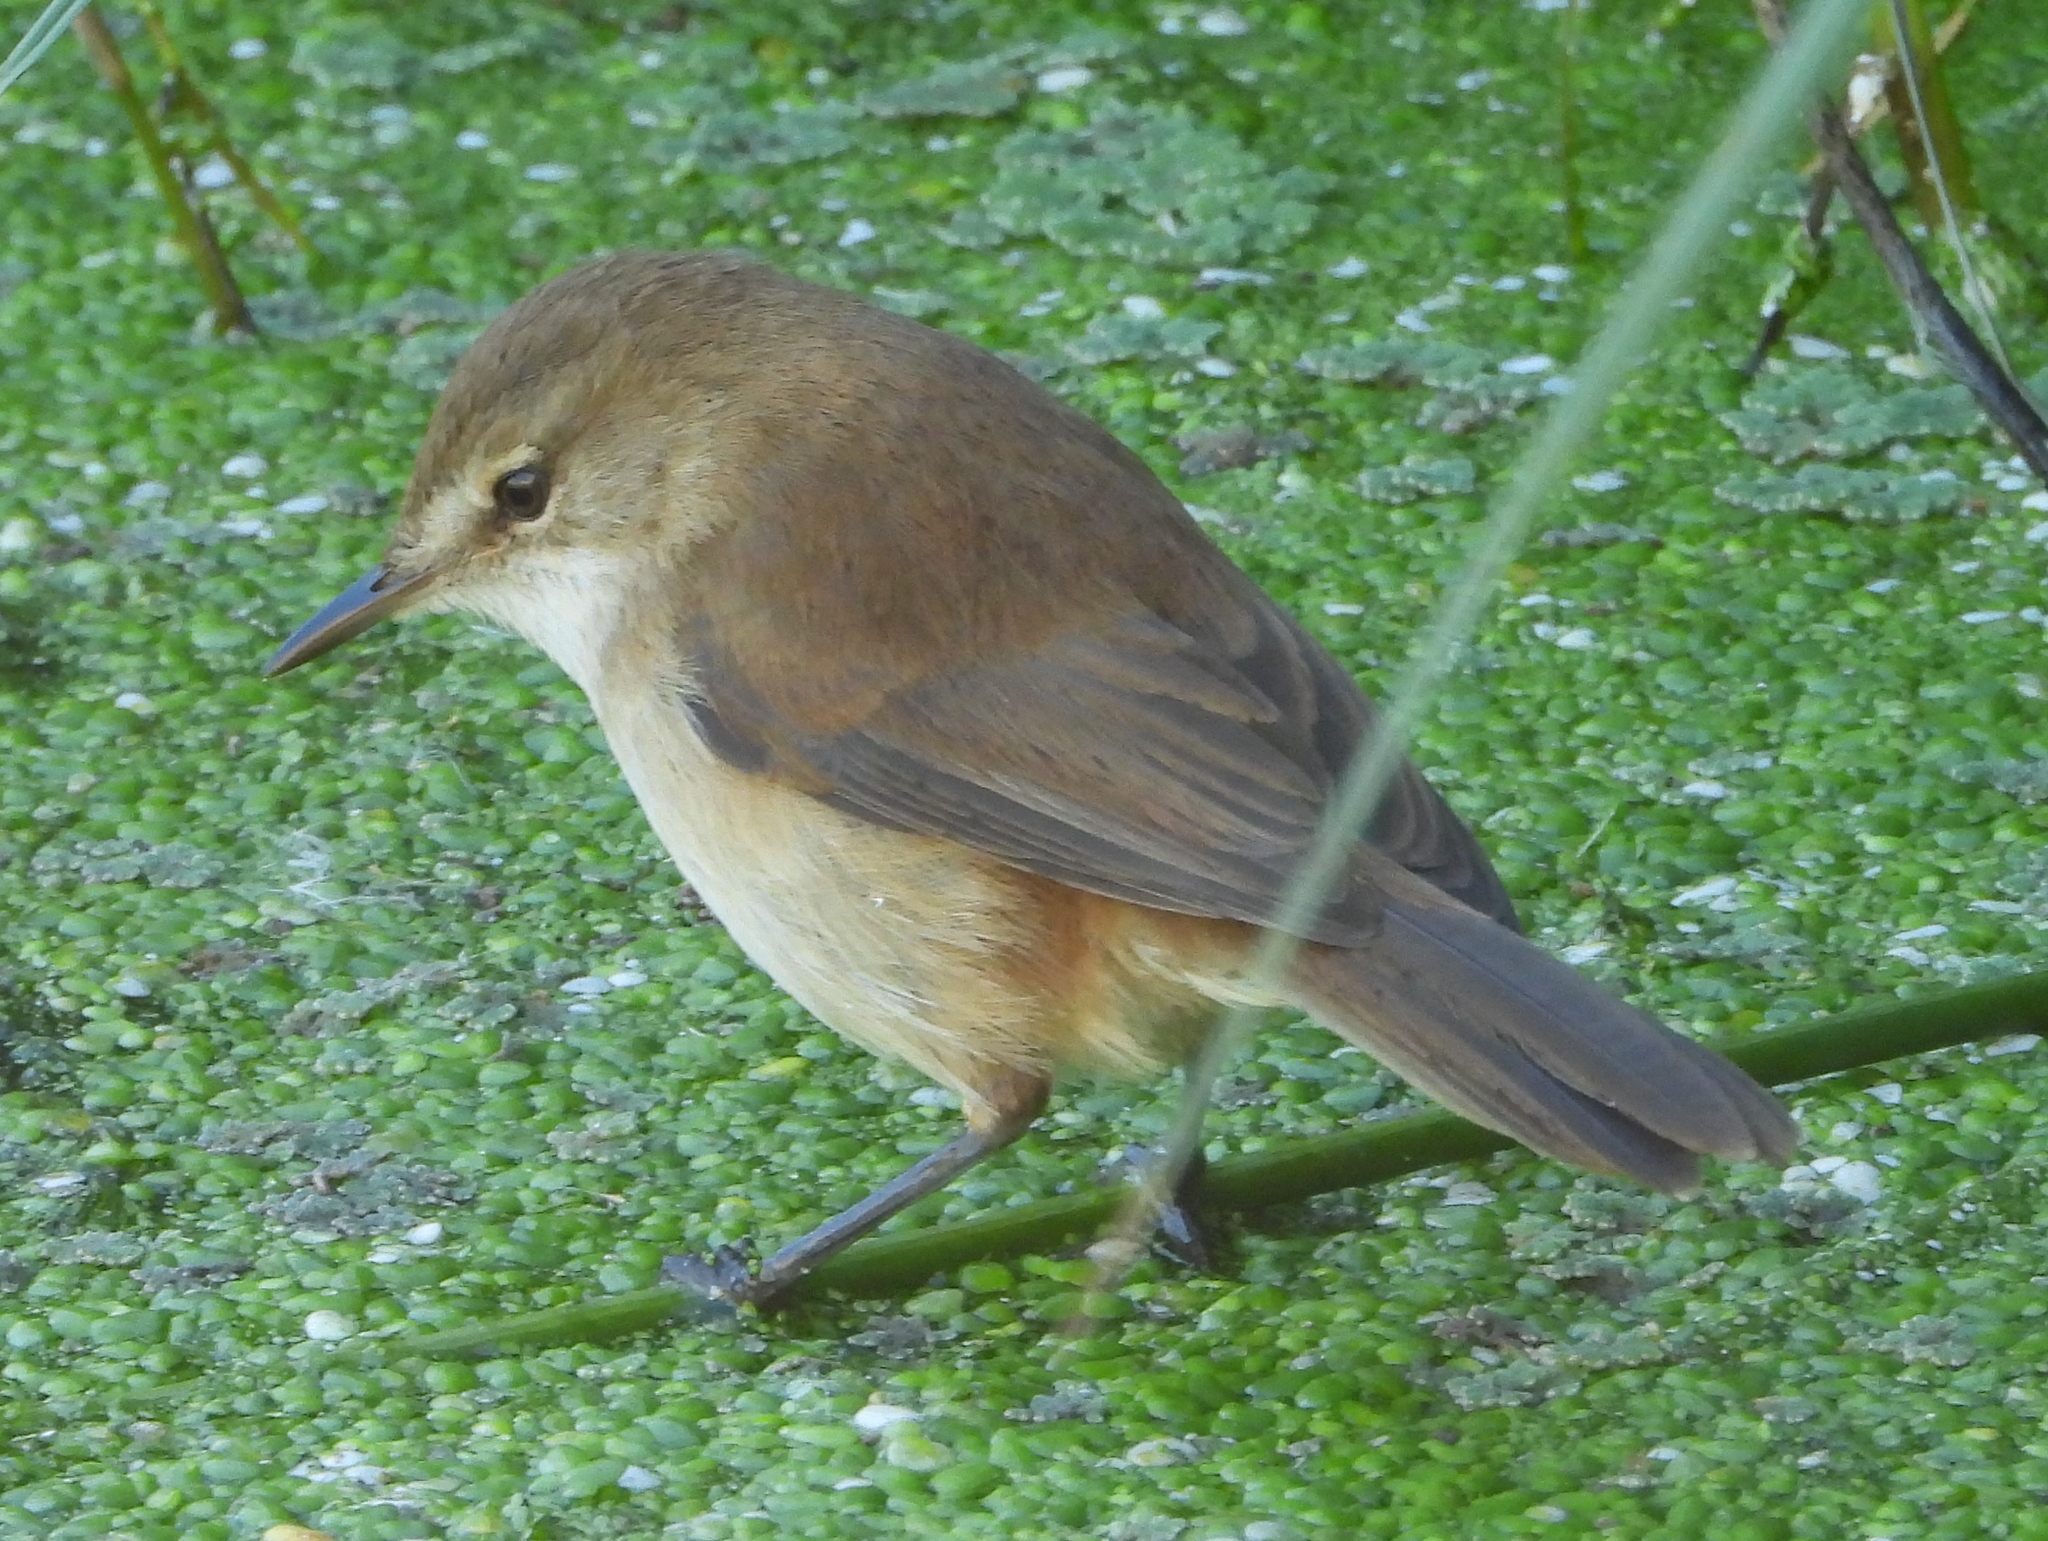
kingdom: Animalia
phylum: Chordata
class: Aves
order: Passeriformes
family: Acrocephalidae
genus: Acrocephalus
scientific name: Acrocephalus gracilirostris
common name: Lesser swamp warbler
